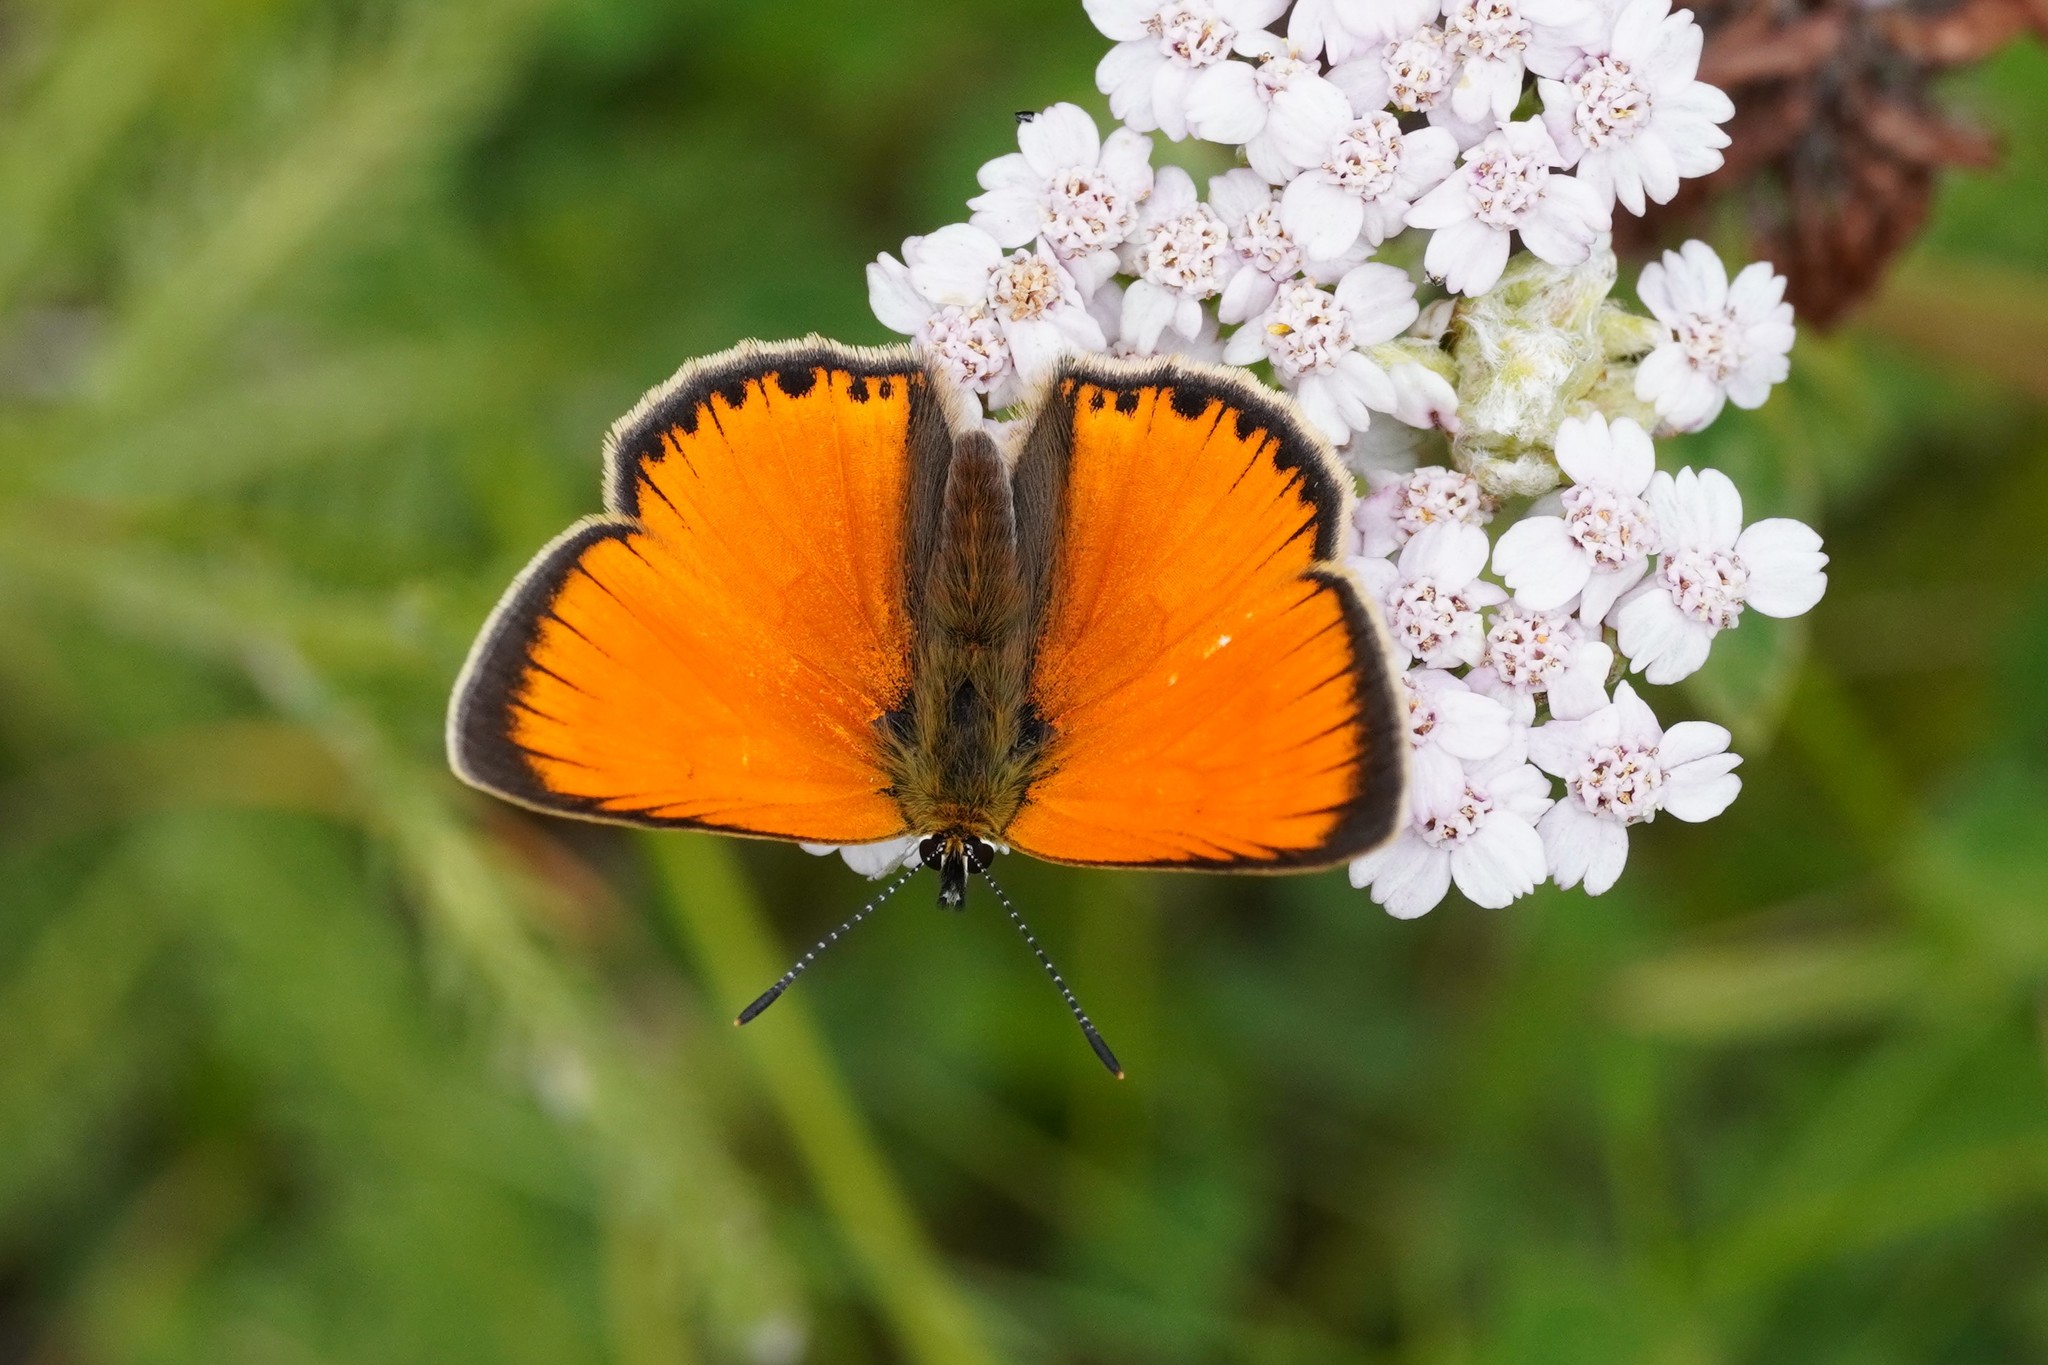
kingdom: Animalia
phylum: Arthropoda
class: Insecta
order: Lepidoptera
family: Lycaenidae
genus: Lycaena
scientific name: Lycaena virgaureae
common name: Scarce copper
